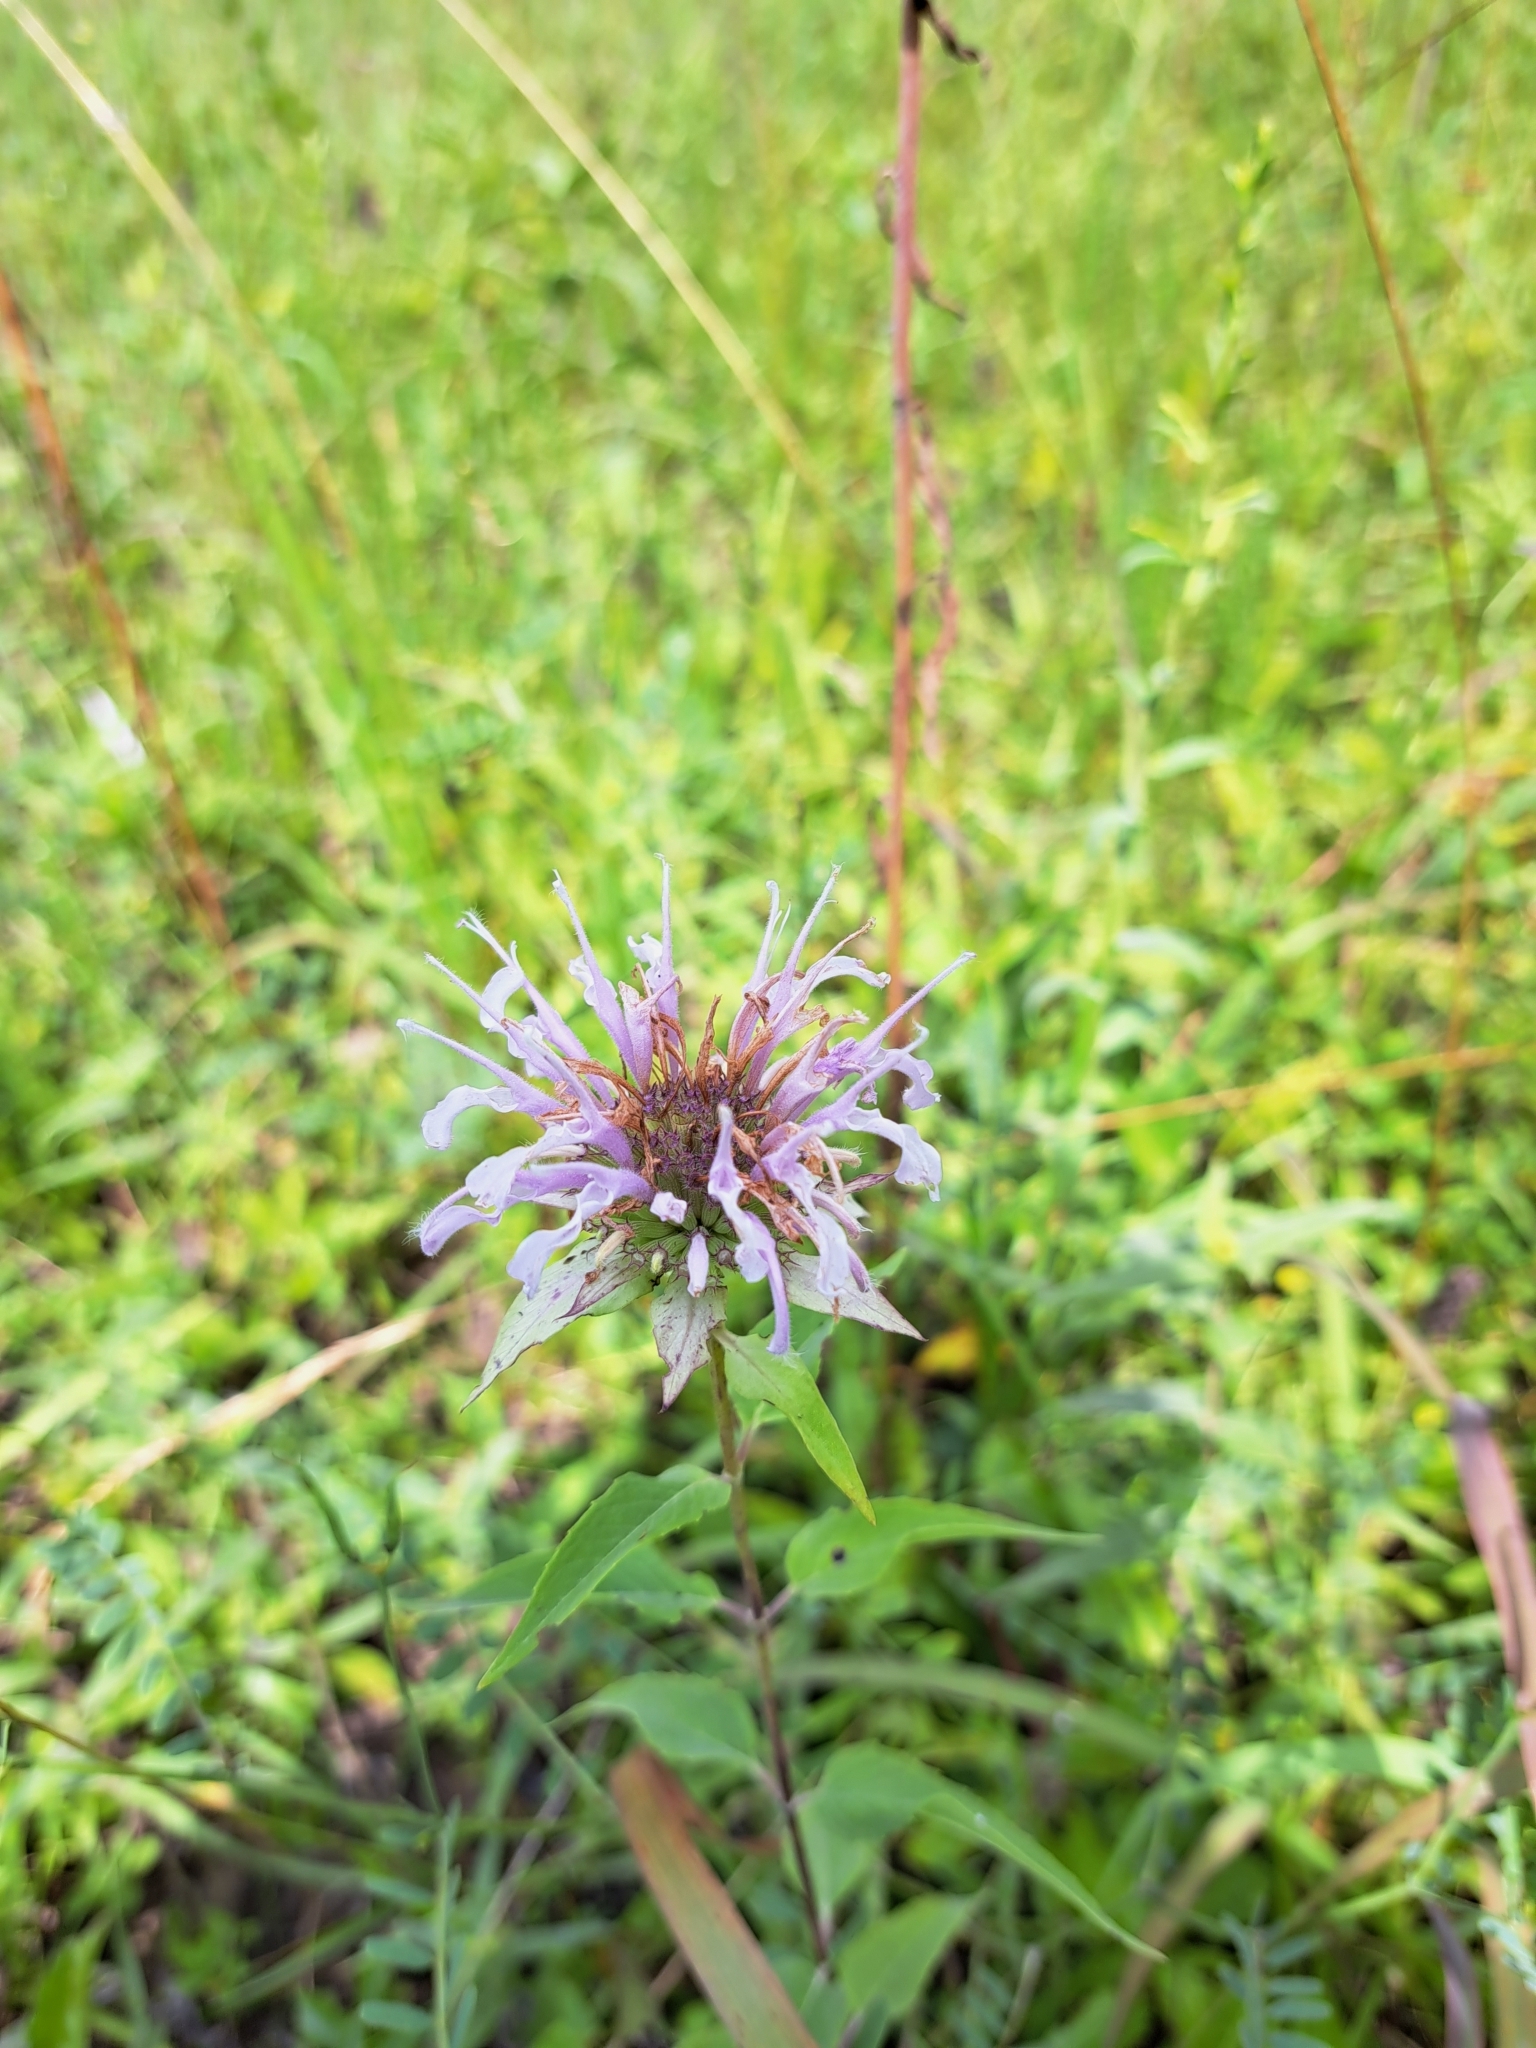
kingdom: Plantae
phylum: Tracheophyta
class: Magnoliopsida
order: Lamiales
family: Lamiaceae
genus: Monarda
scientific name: Monarda fistulosa
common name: Purple beebalm
